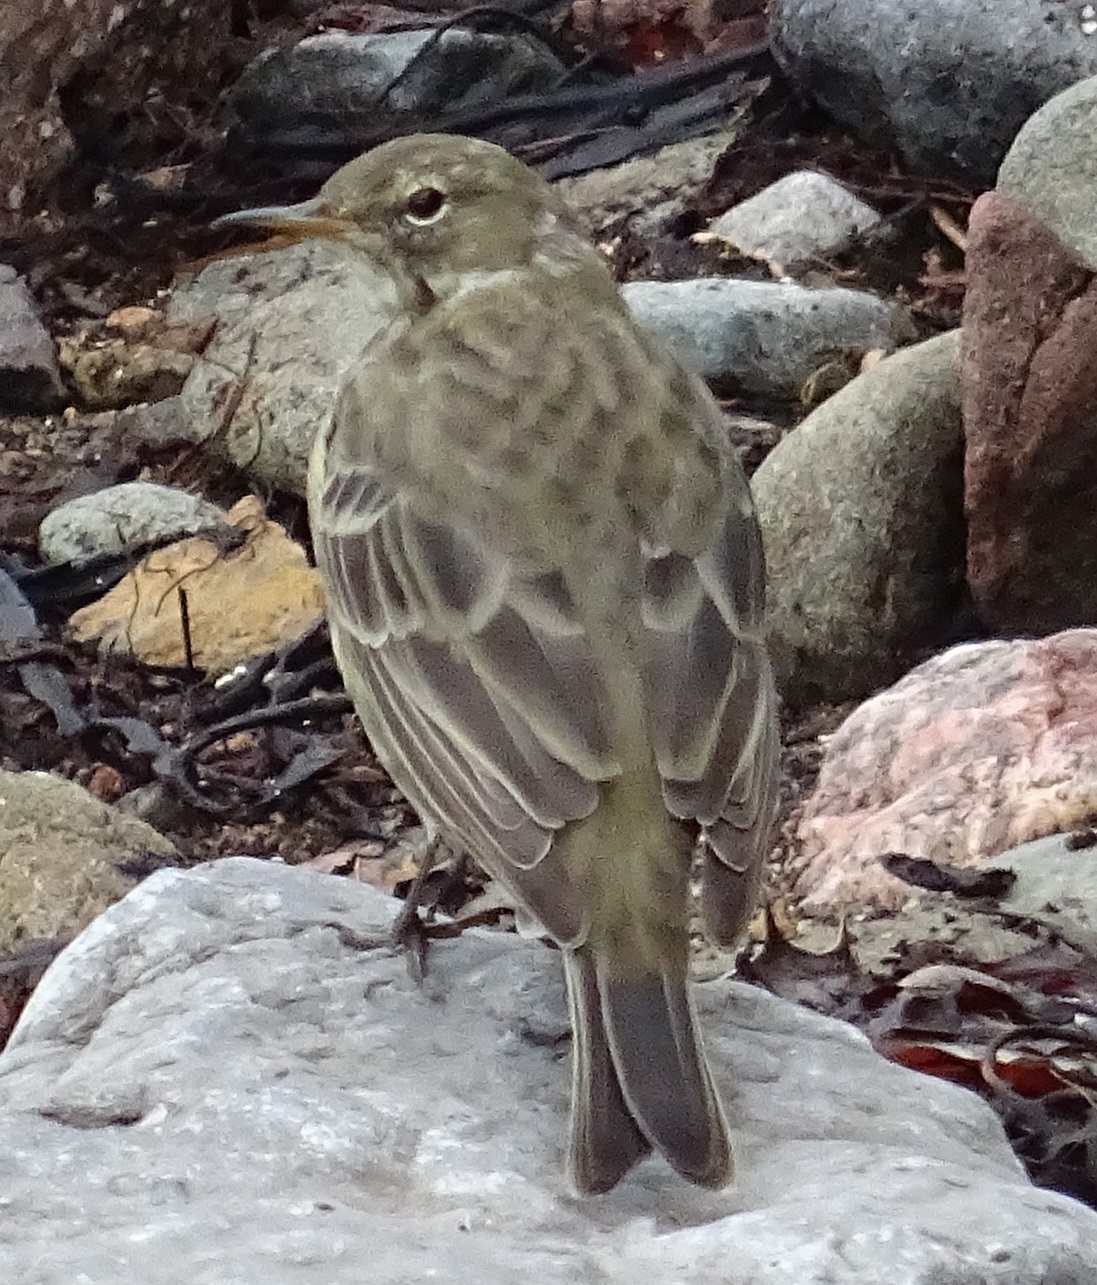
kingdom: Animalia
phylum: Chordata
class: Aves
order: Passeriformes
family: Motacillidae
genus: Anthus
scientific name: Anthus petrosus
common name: Eurasian rock pipit
